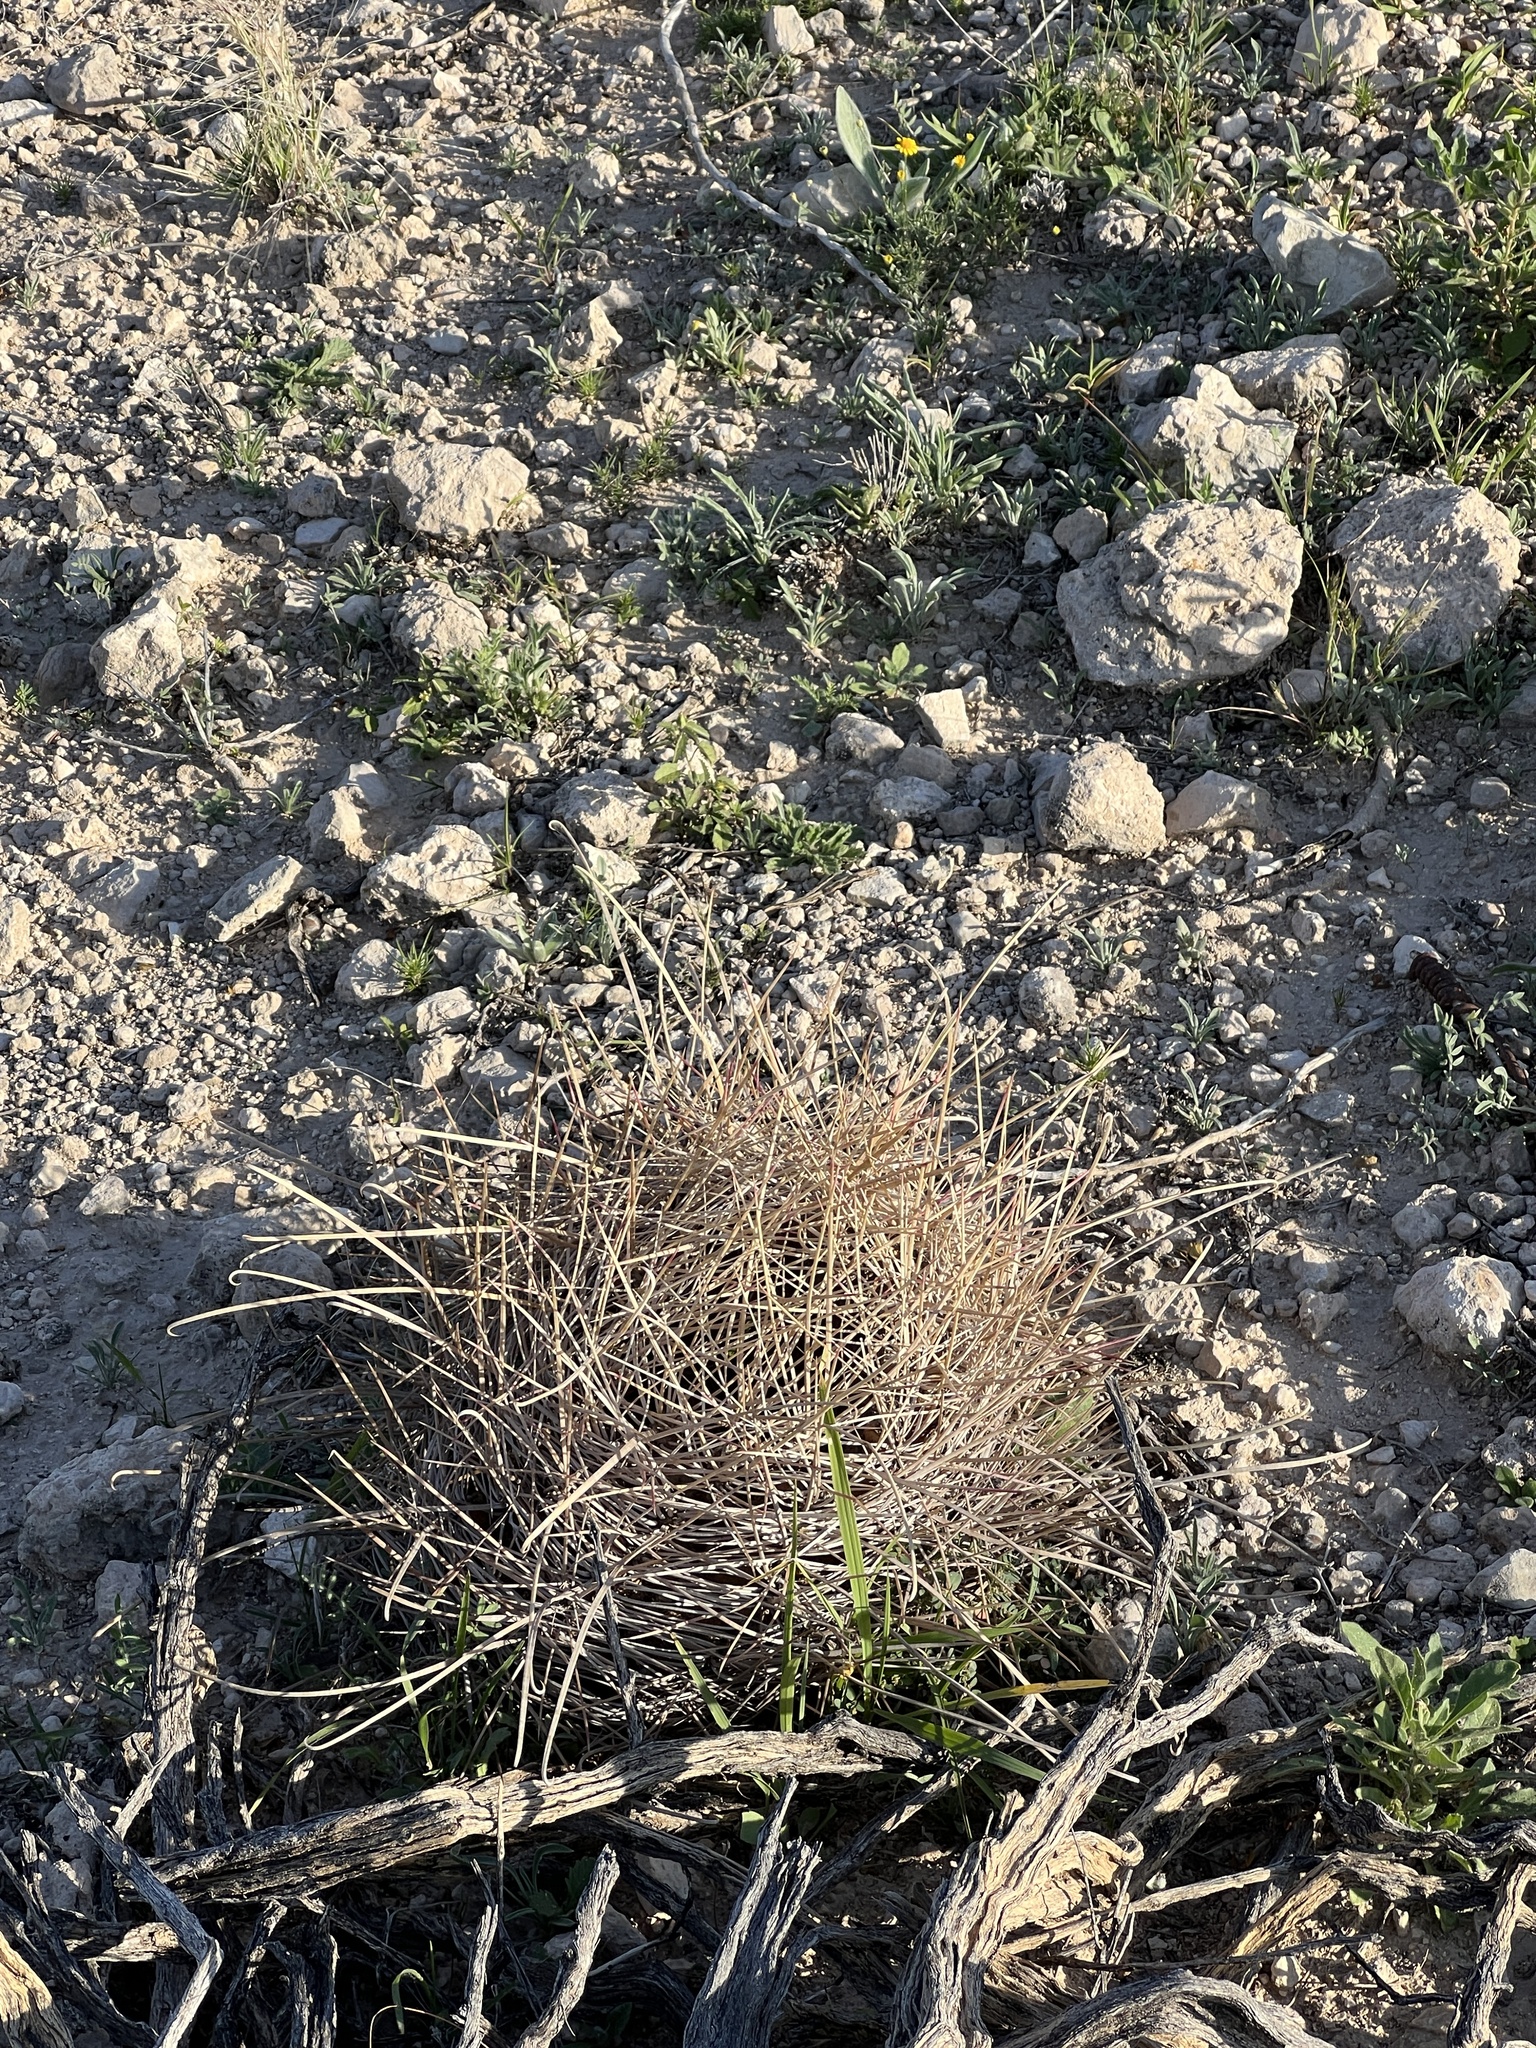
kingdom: Plantae
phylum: Tracheophyta
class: Magnoliopsida
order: Caryophyllales
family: Cactaceae
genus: Bisnaga
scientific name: Bisnaga hamatacantha
